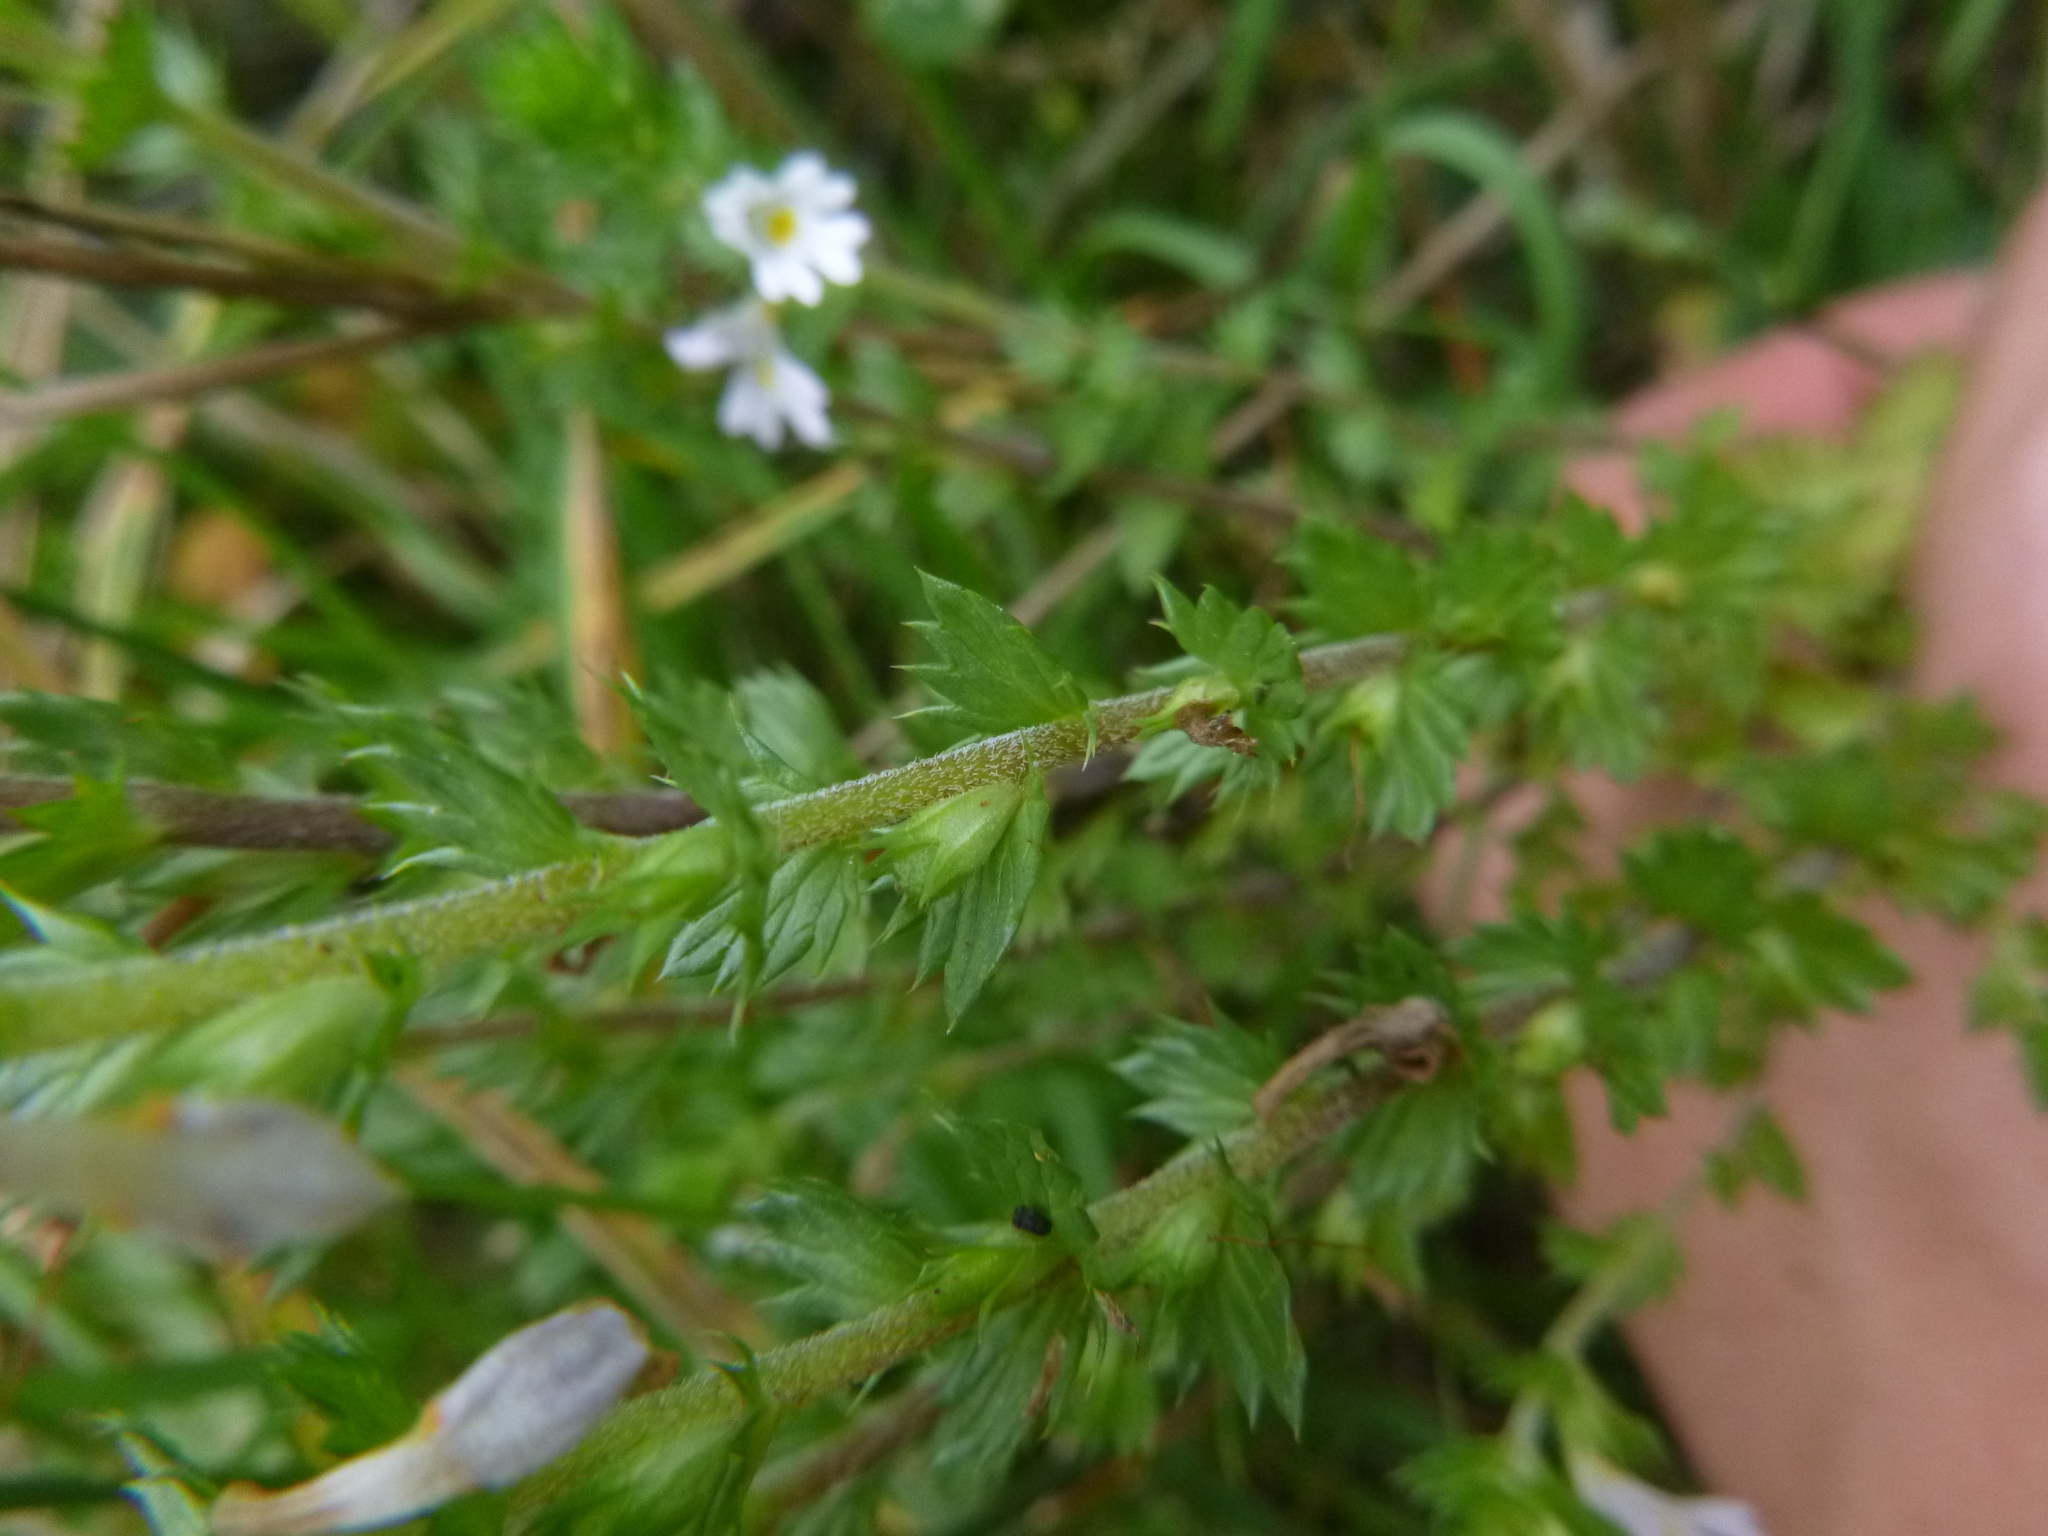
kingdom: Plantae
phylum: Tracheophyta
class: Magnoliopsida
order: Lamiales
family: Orobanchaceae
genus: Euphrasia
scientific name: Euphrasia stricta
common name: Drug eyebright
